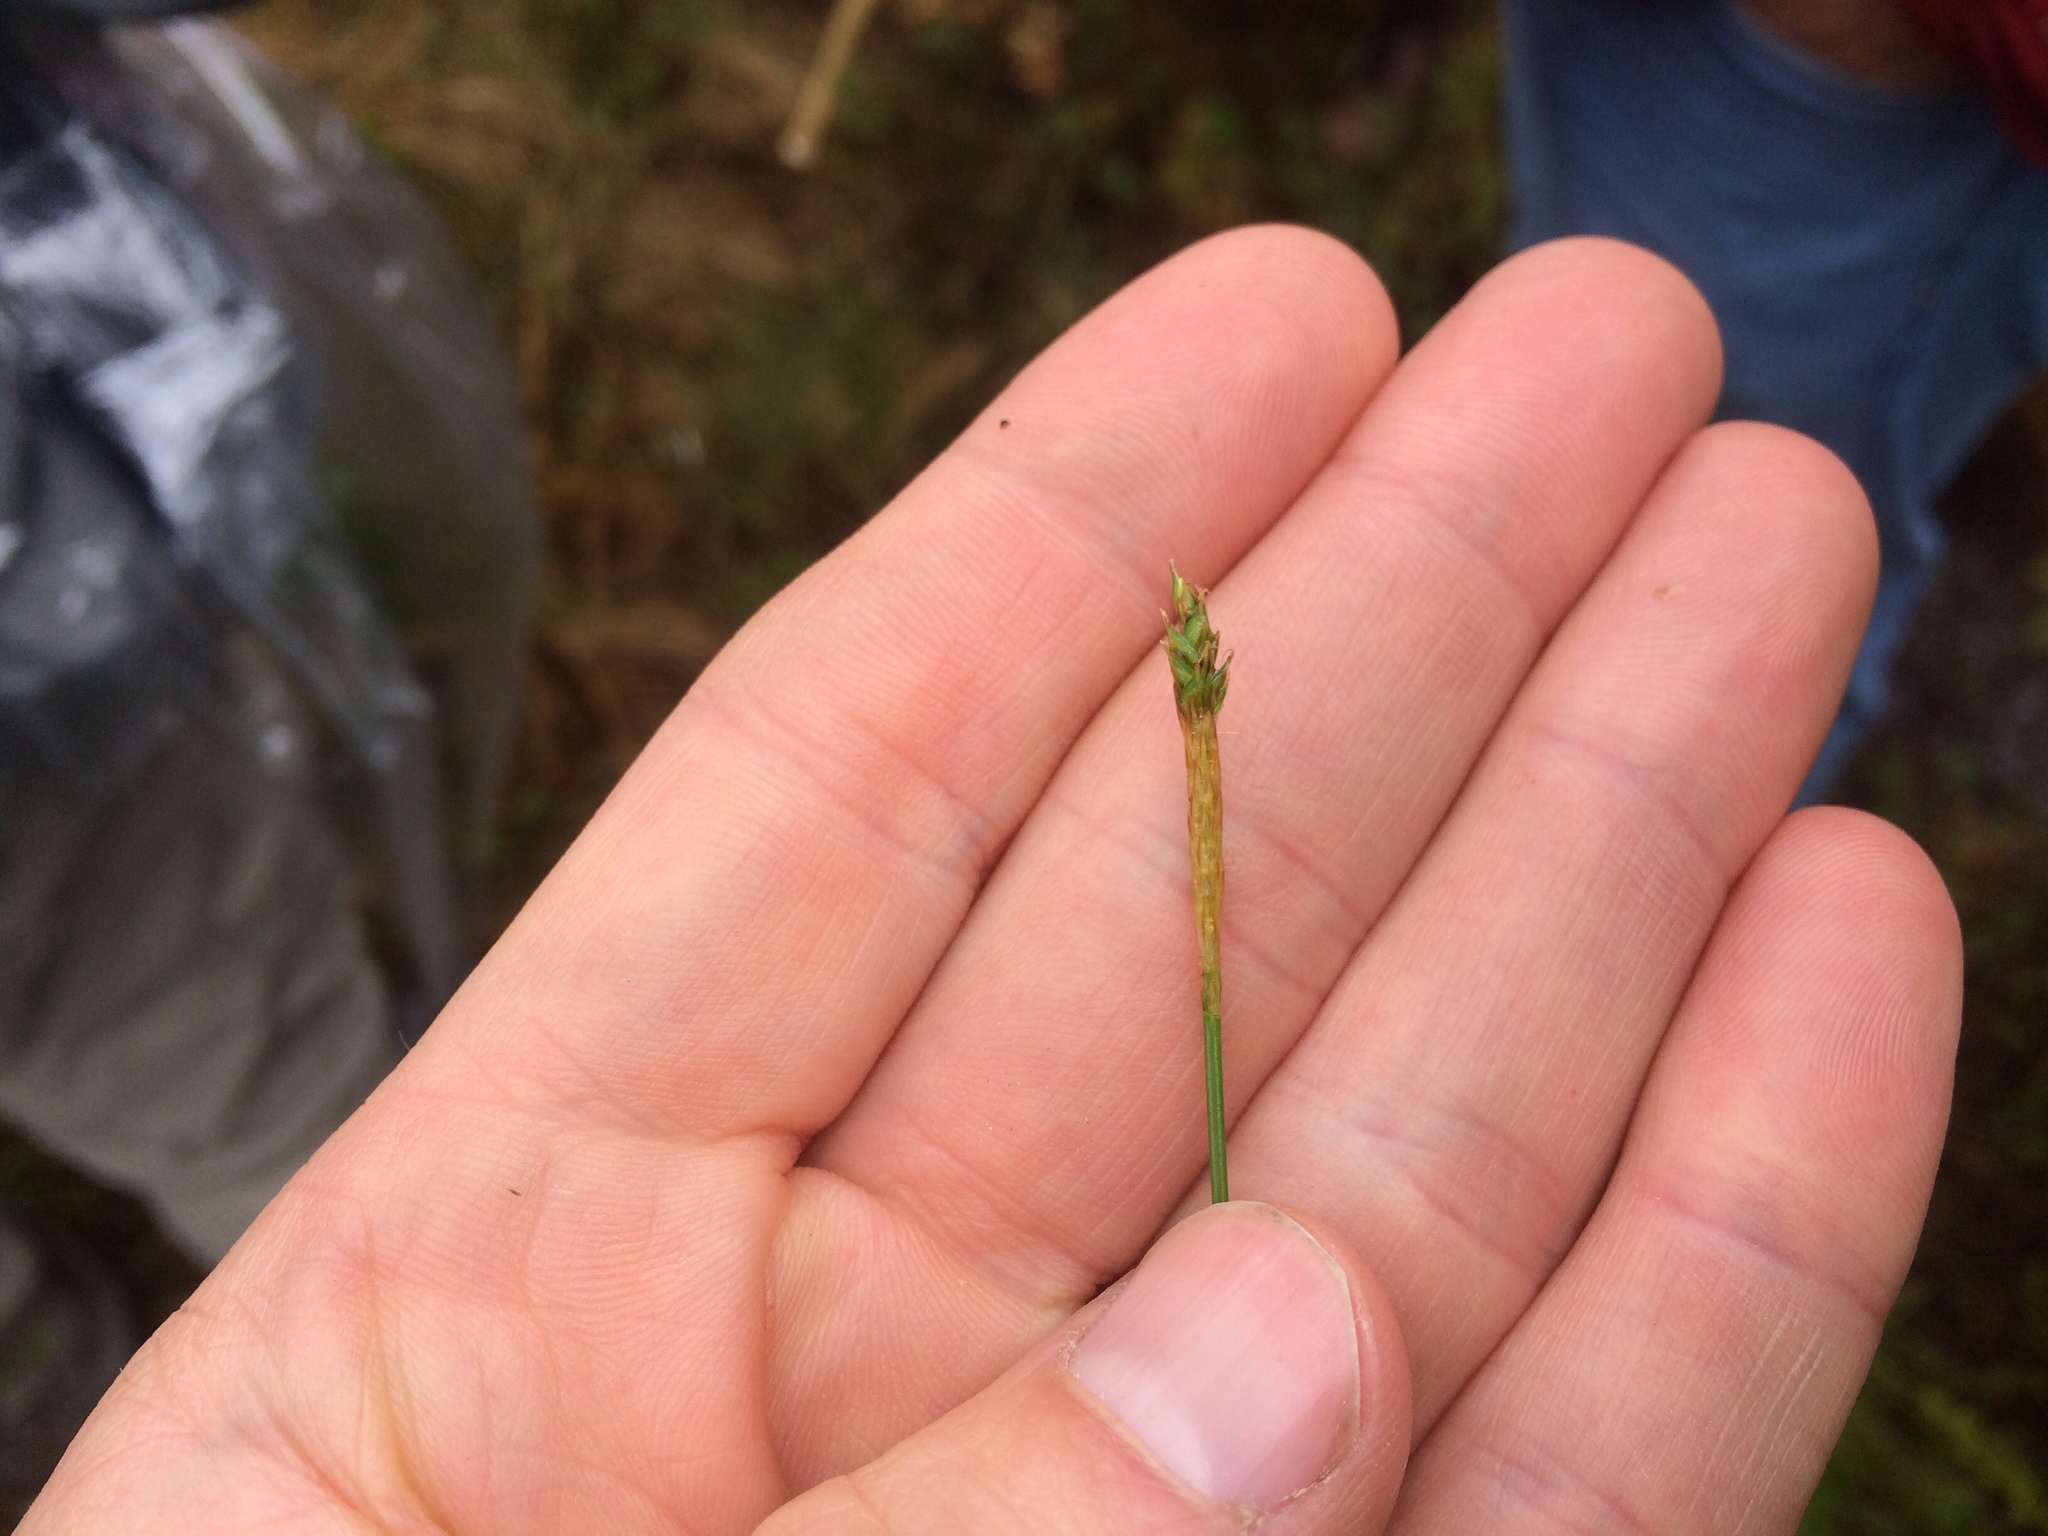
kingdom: Plantae
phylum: Tracheophyta
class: Liliopsida
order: Poales
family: Cyperaceae
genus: Carex
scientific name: Carex exilis
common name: Coastal sedge
